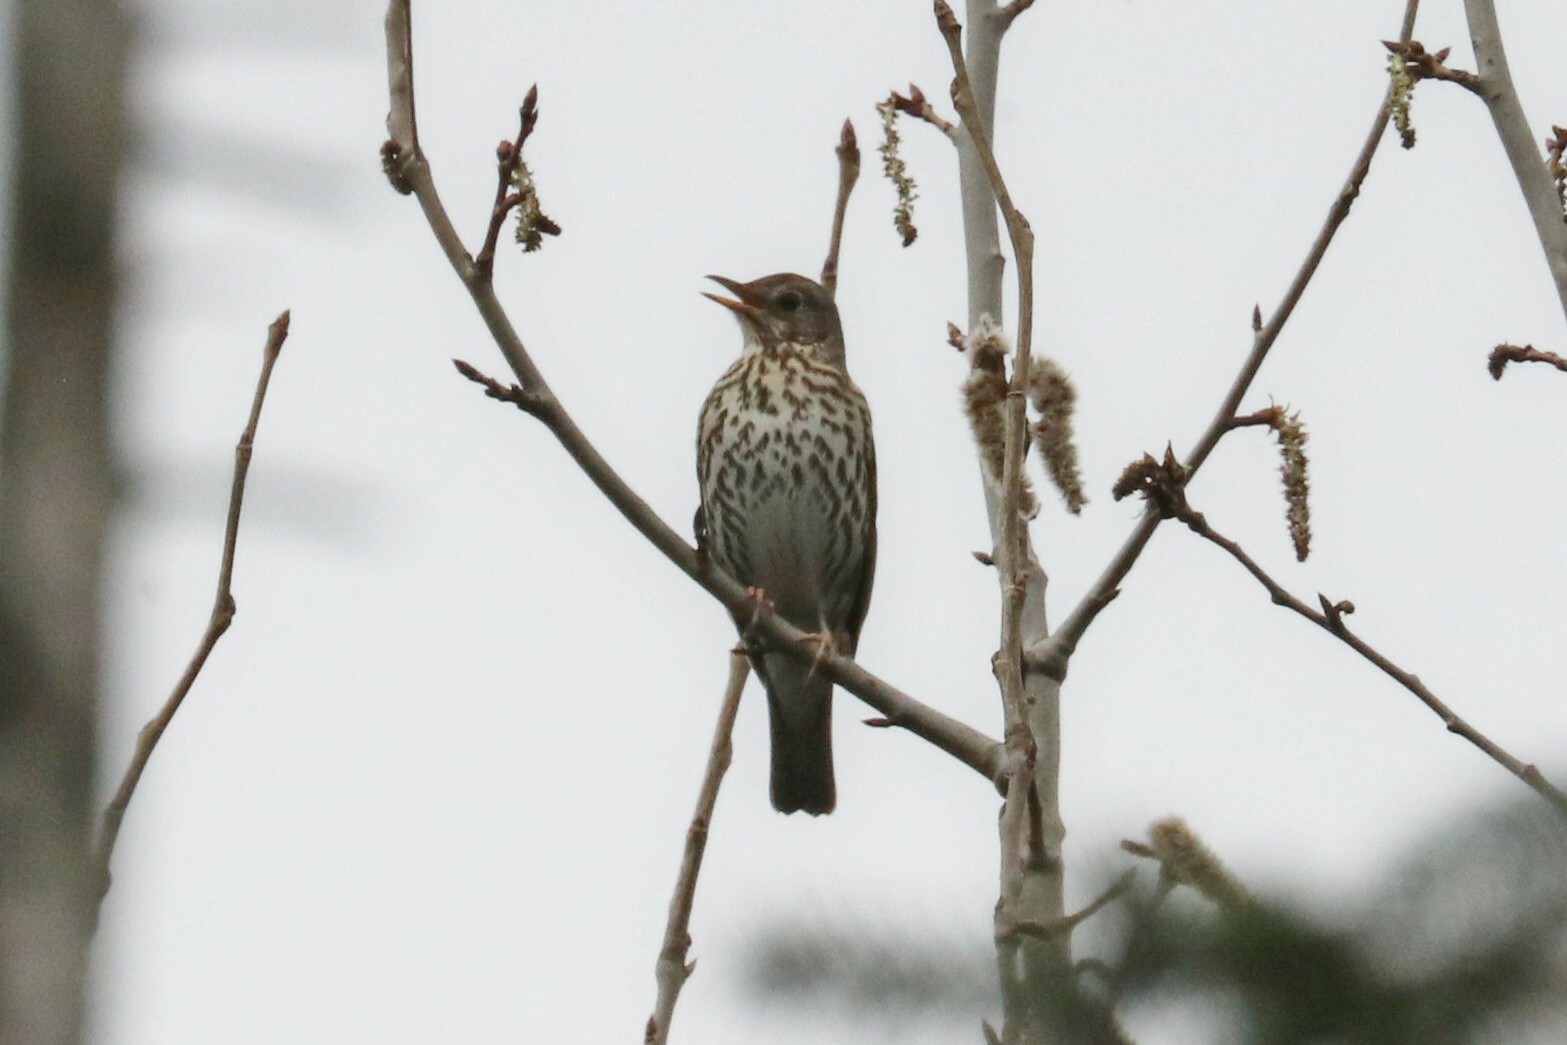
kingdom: Animalia
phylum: Chordata
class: Aves
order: Passeriformes
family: Turdidae
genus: Turdus
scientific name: Turdus philomelos
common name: Song thrush
